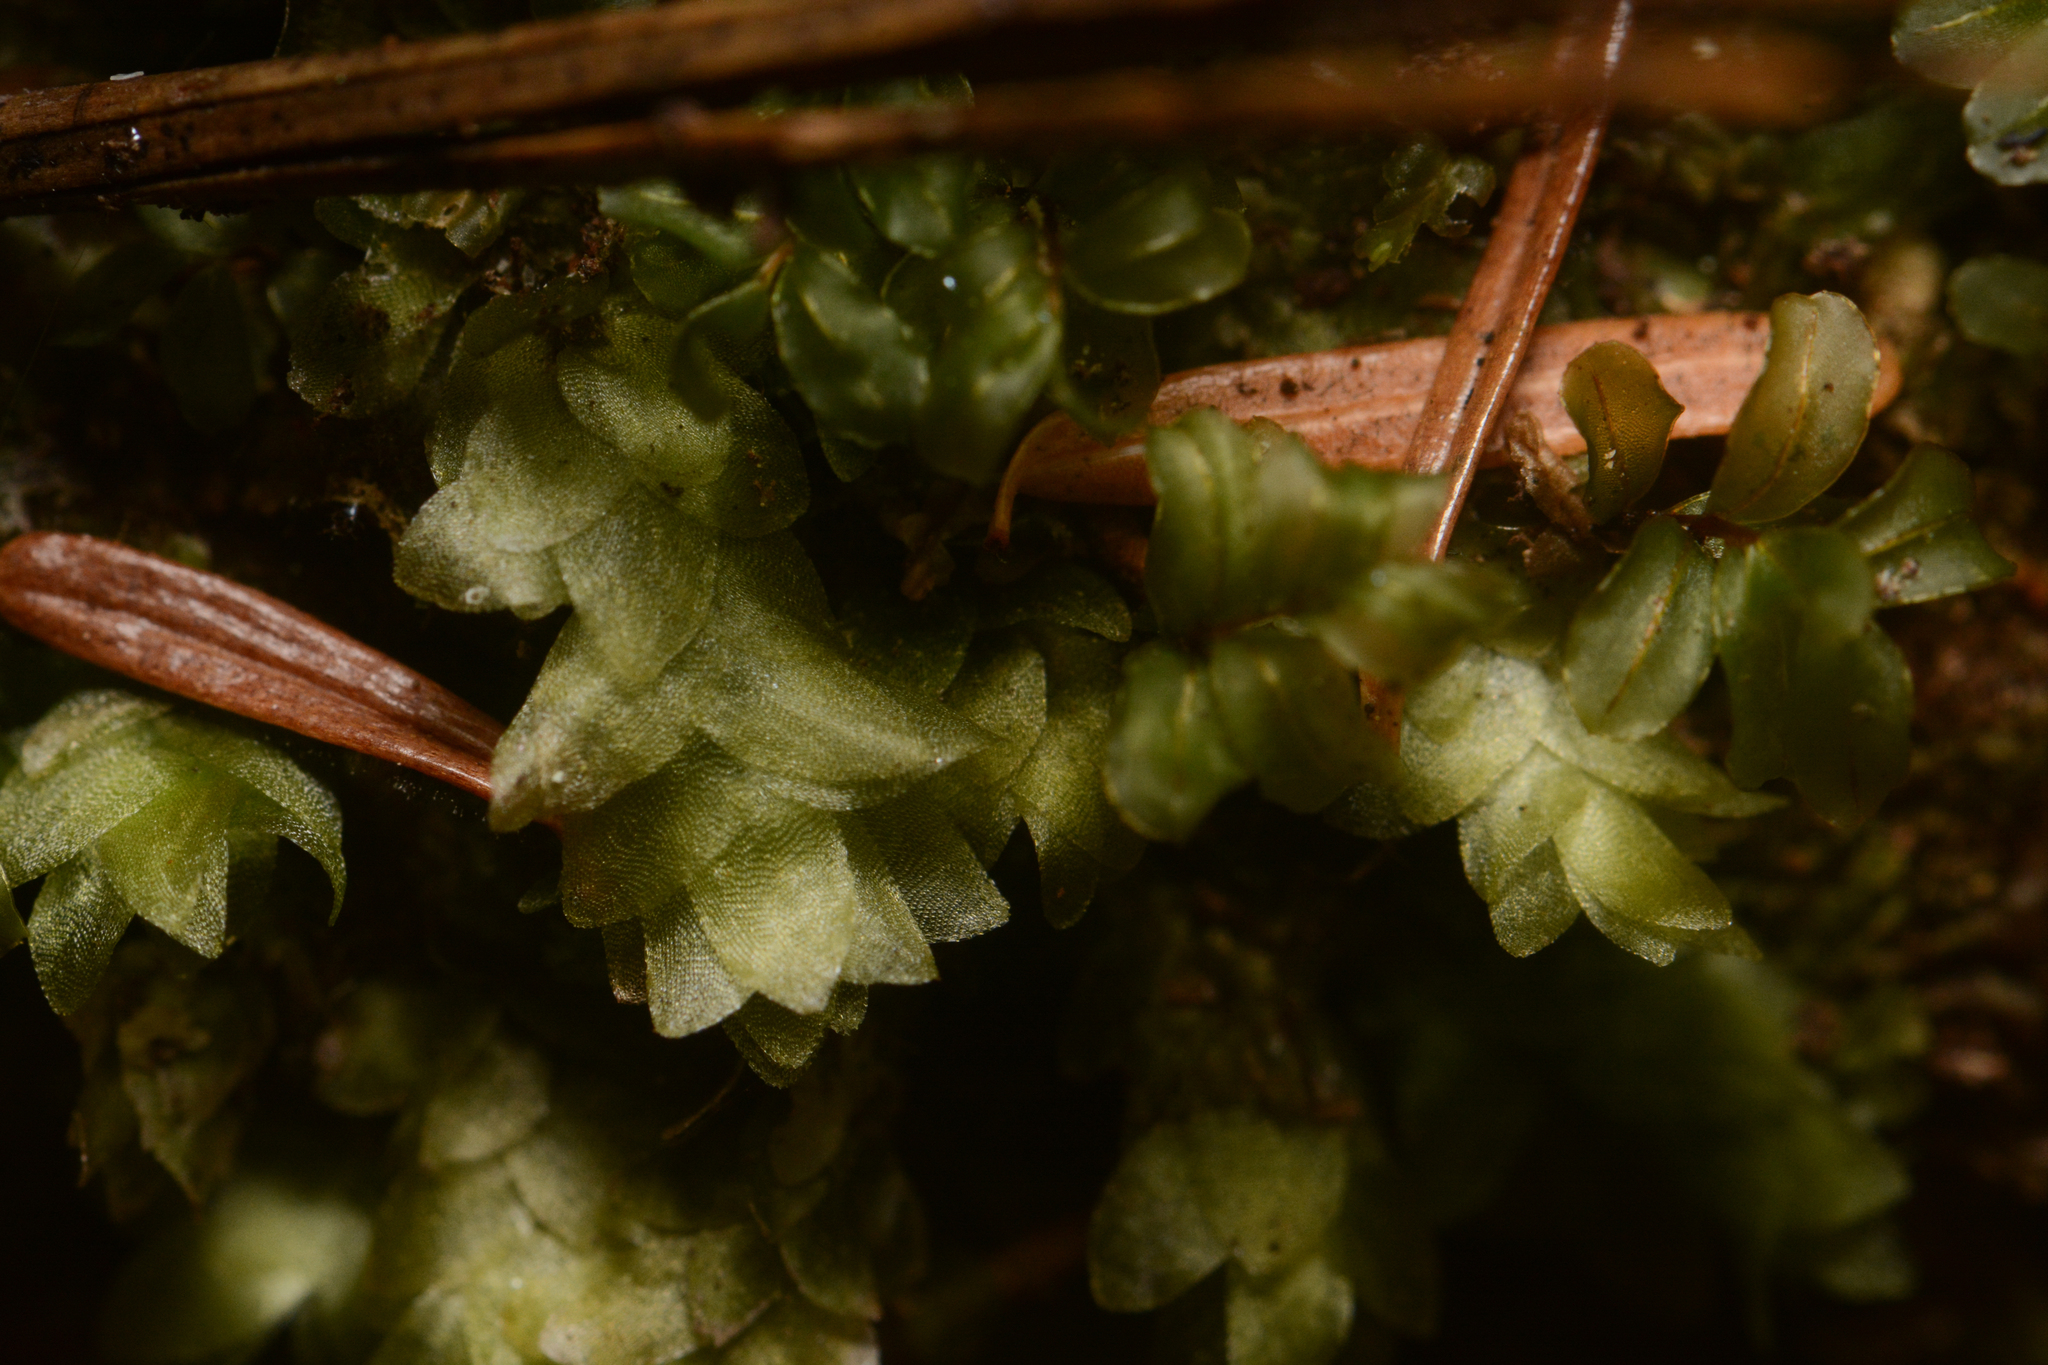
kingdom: Plantae
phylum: Bryophyta
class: Bryopsida
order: Hookeriales
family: Hookeriaceae
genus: Hookeria
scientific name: Hookeria lucens
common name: Shining hookeria
